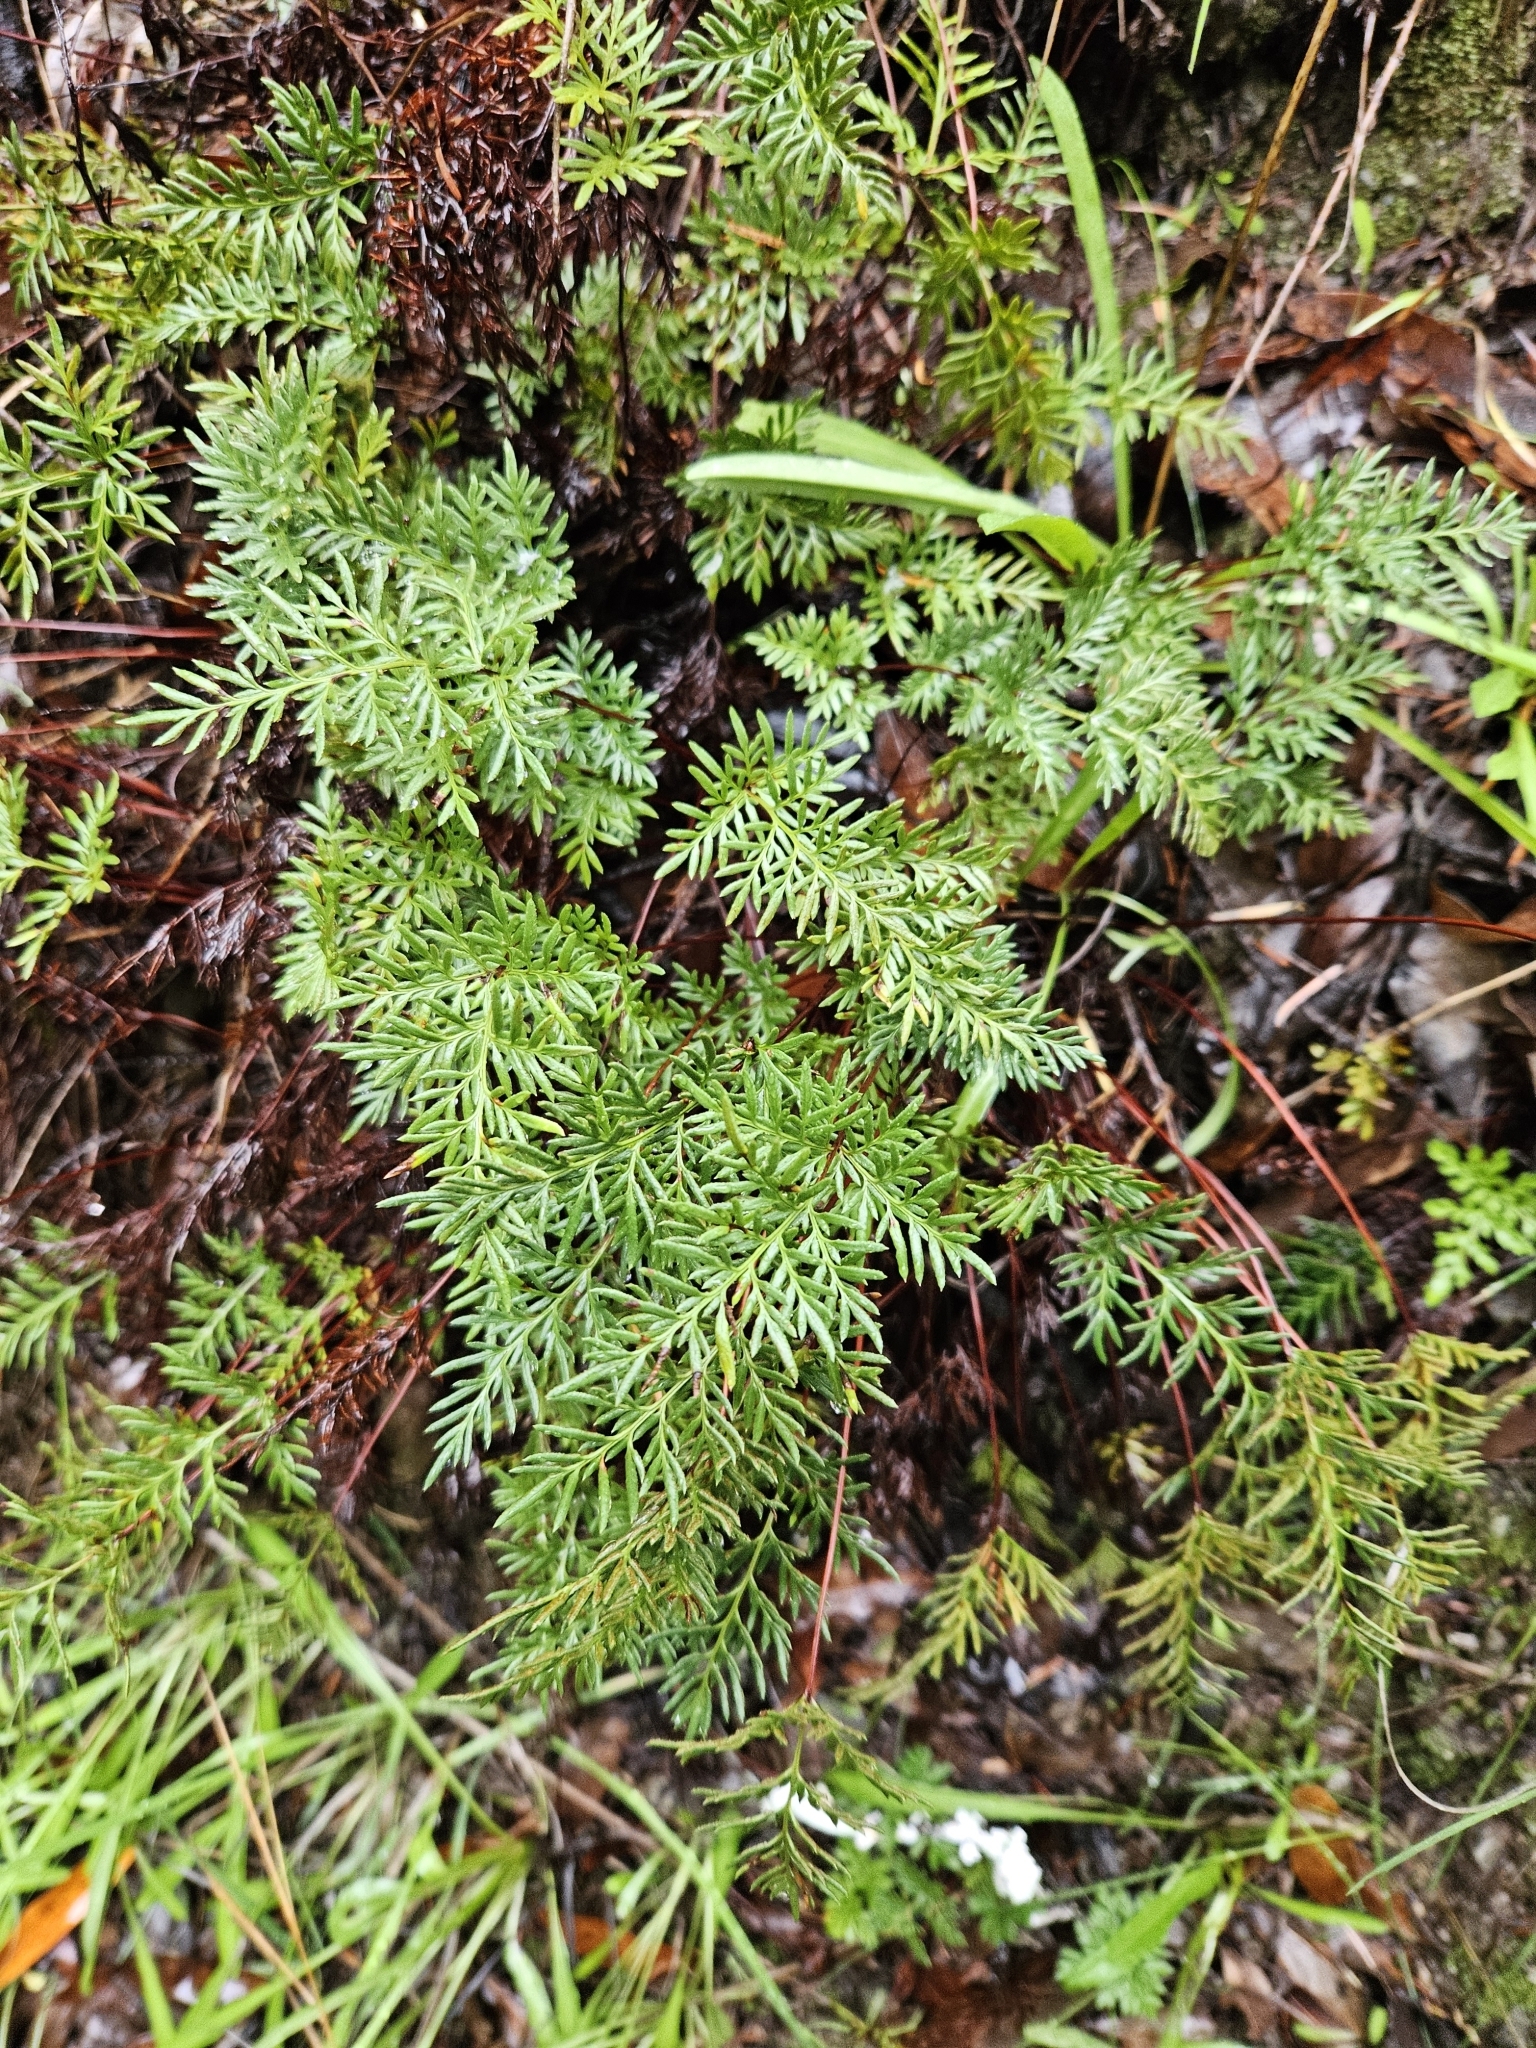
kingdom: Plantae
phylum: Tracheophyta
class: Polypodiopsida
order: Polypodiales
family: Pteridaceae
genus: Aspidotis
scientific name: Aspidotis densa
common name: Indian's dream
